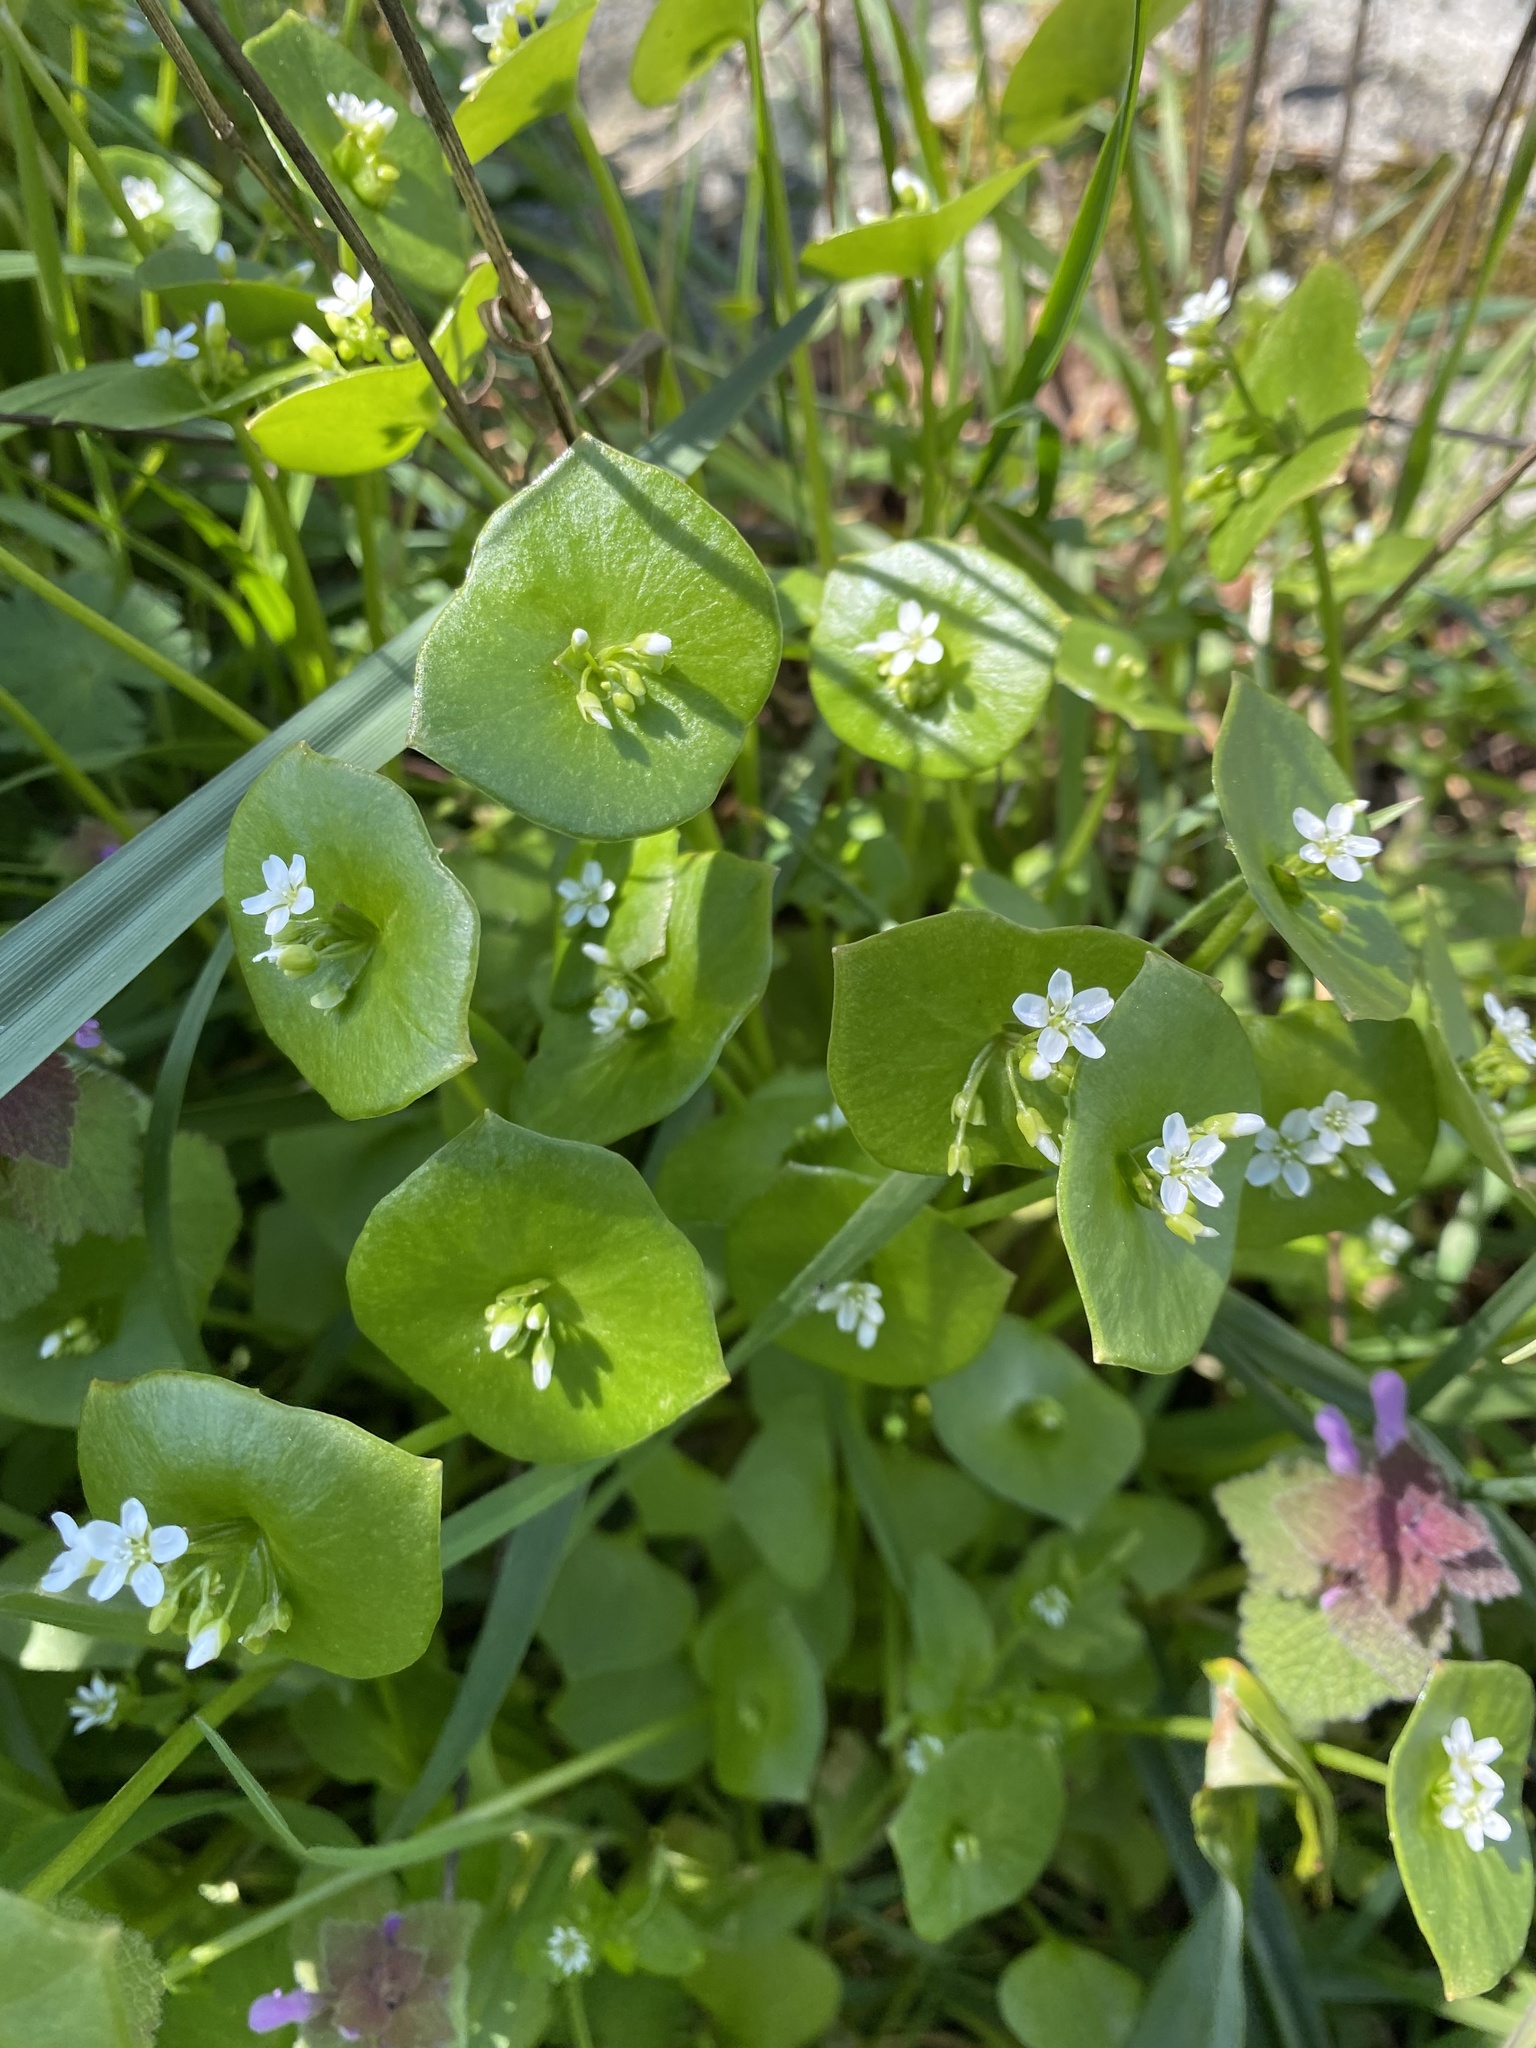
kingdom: Plantae
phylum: Tracheophyta
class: Magnoliopsida
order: Caryophyllales
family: Montiaceae
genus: Claytonia
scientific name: Claytonia perfoliata
